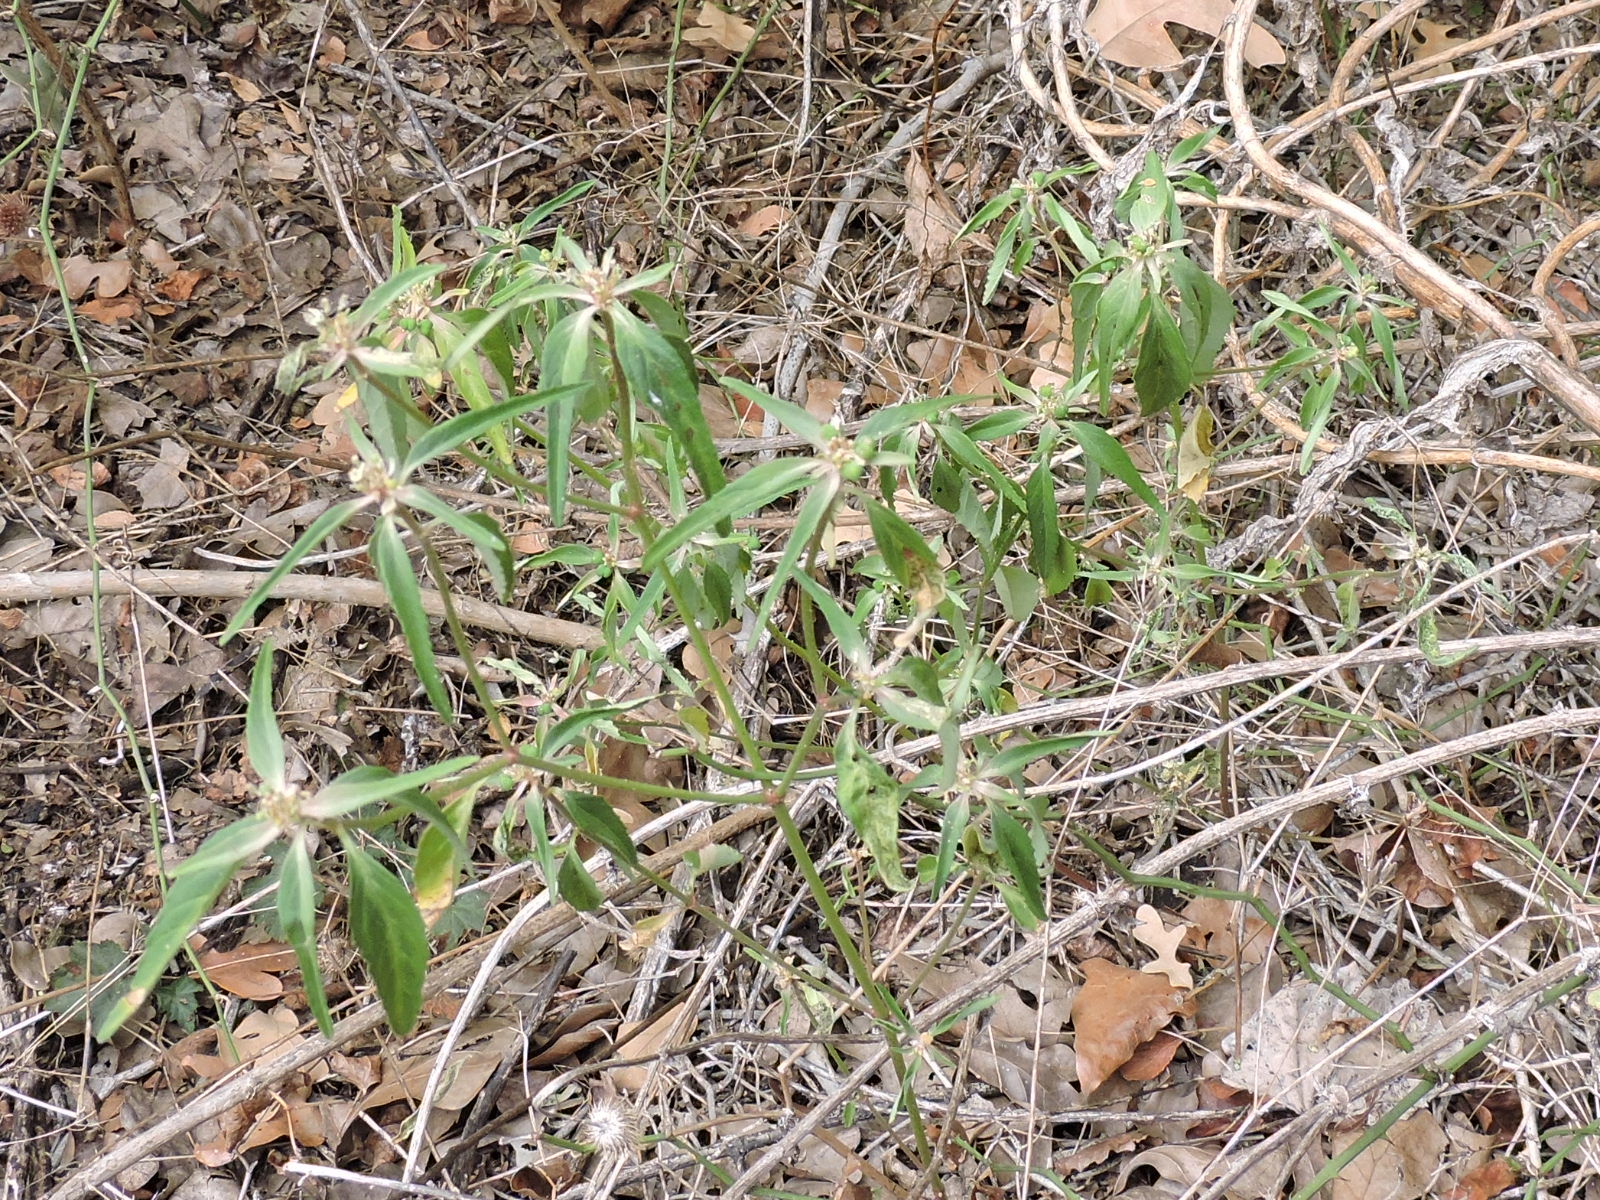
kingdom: Plantae
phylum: Tracheophyta
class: Magnoliopsida
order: Malpighiales
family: Euphorbiaceae
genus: Euphorbia
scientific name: Euphorbia dentata
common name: Dentate spurge
